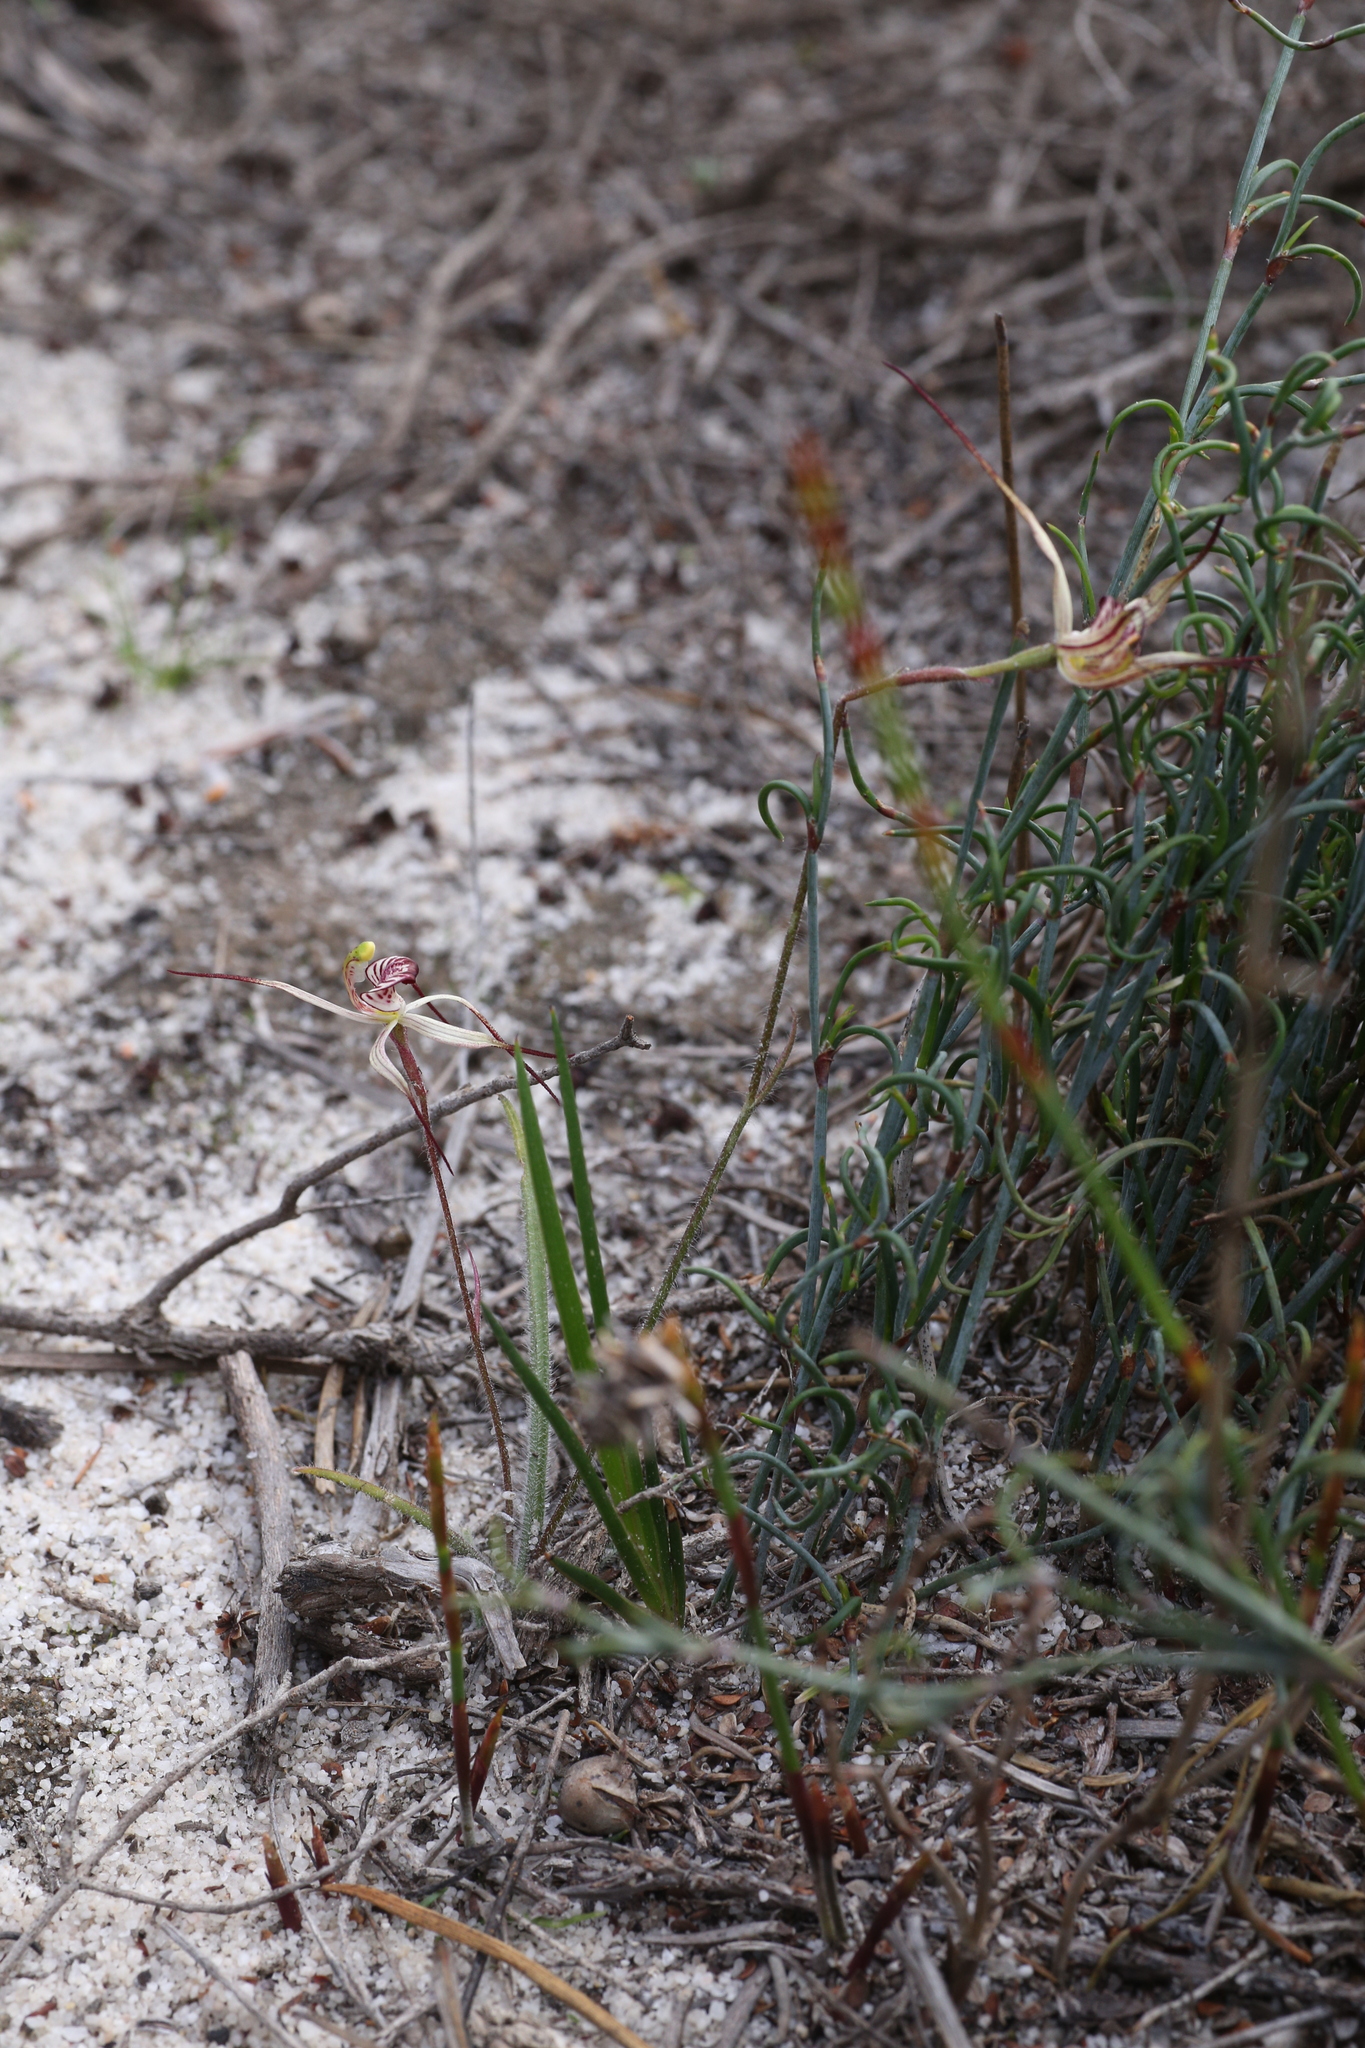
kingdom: Plantae
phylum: Tracheophyta
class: Liliopsida
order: Asparagales
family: Orchidaceae
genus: Caladenia
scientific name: Caladenia radialis
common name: Drooping spider orchid
